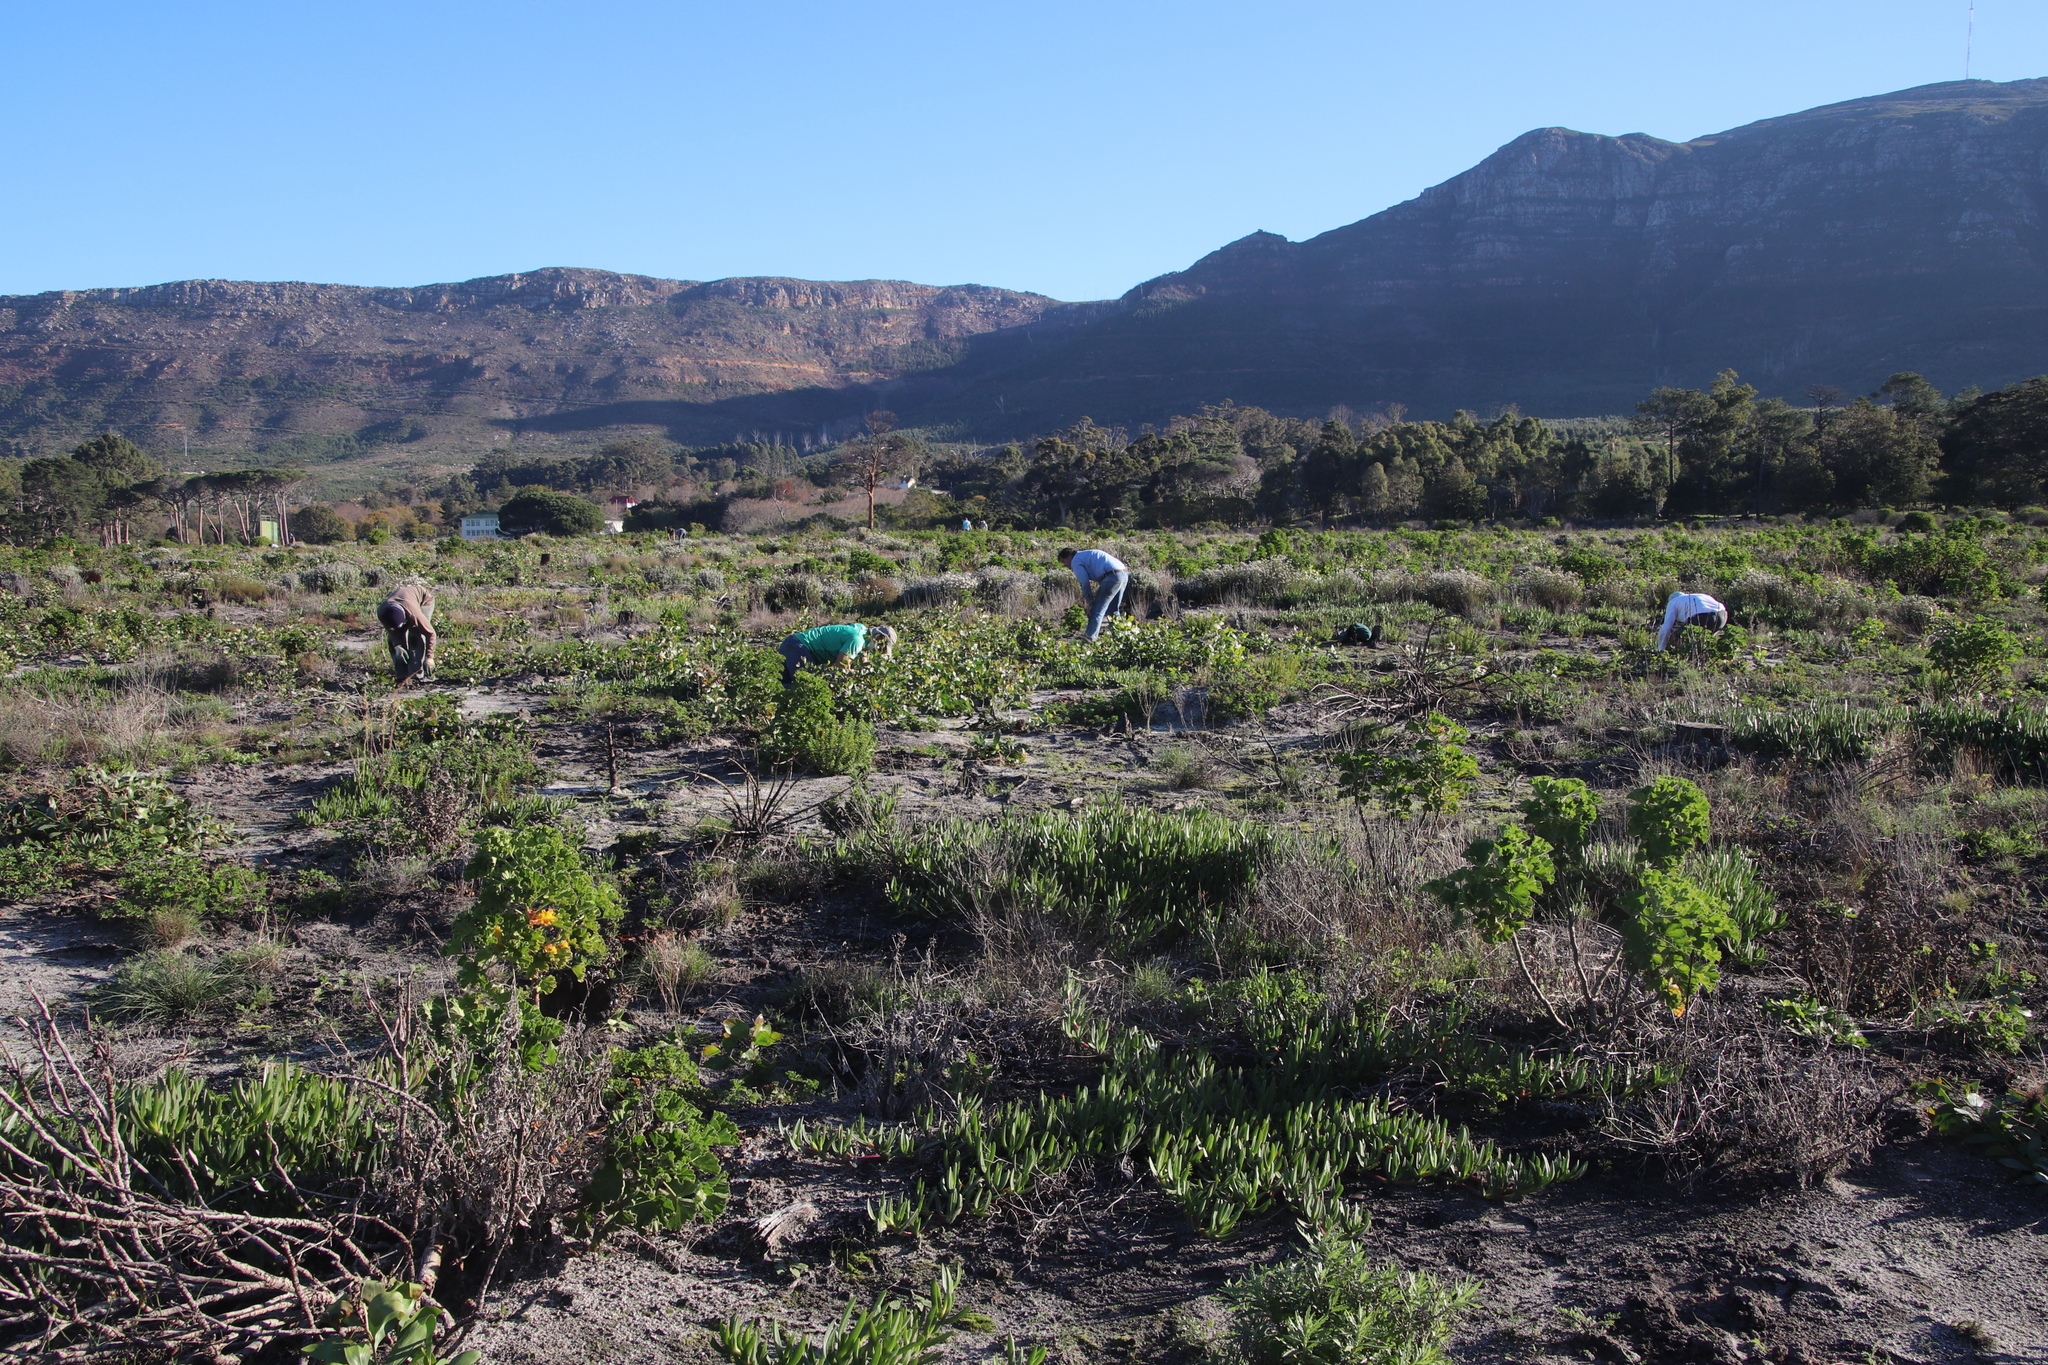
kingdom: Plantae
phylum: Tracheophyta
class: Magnoliopsida
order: Caryophyllales
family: Aizoaceae
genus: Carpobrotus
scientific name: Carpobrotus edulis
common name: Hottentot-fig
